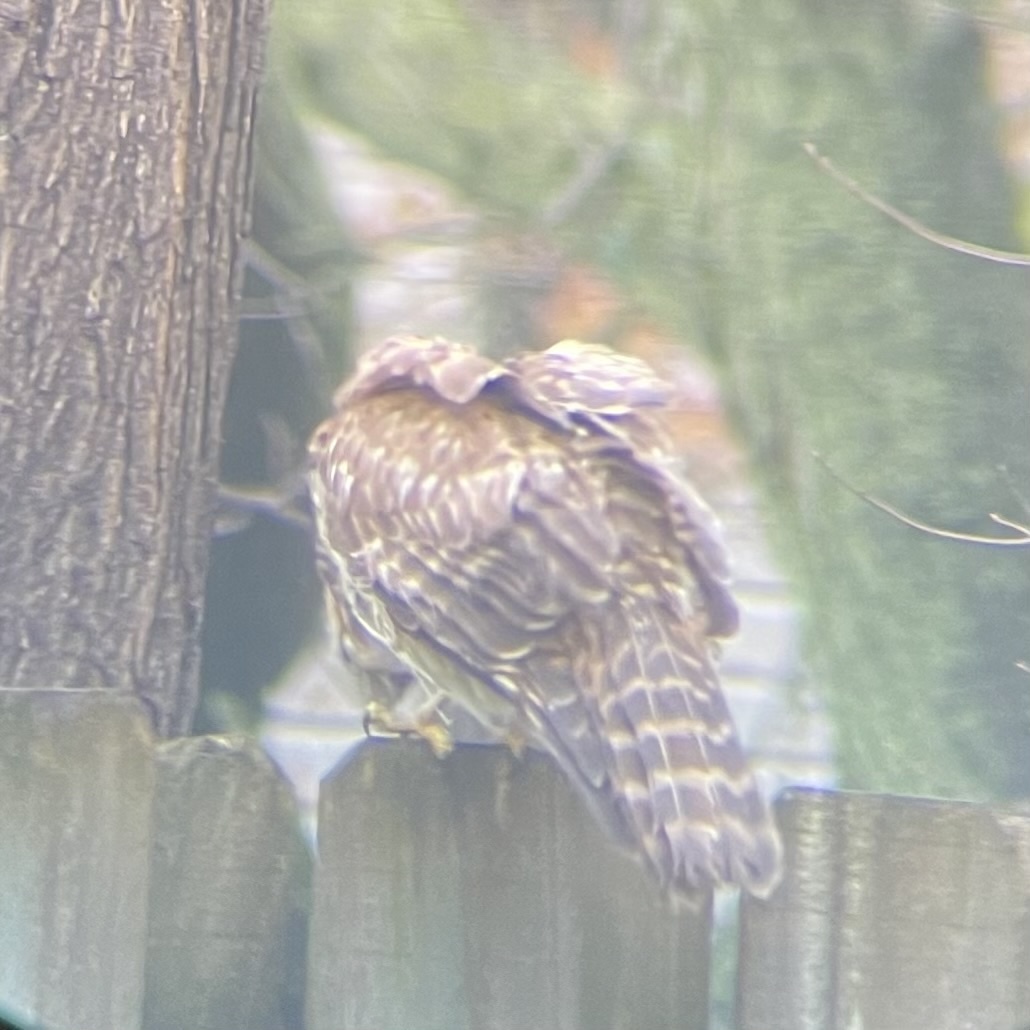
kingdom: Animalia
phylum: Chordata
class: Aves
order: Accipitriformes
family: Accipitridae
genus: Buteo
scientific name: Buteo lineatus
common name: Red-shouldered hawk
